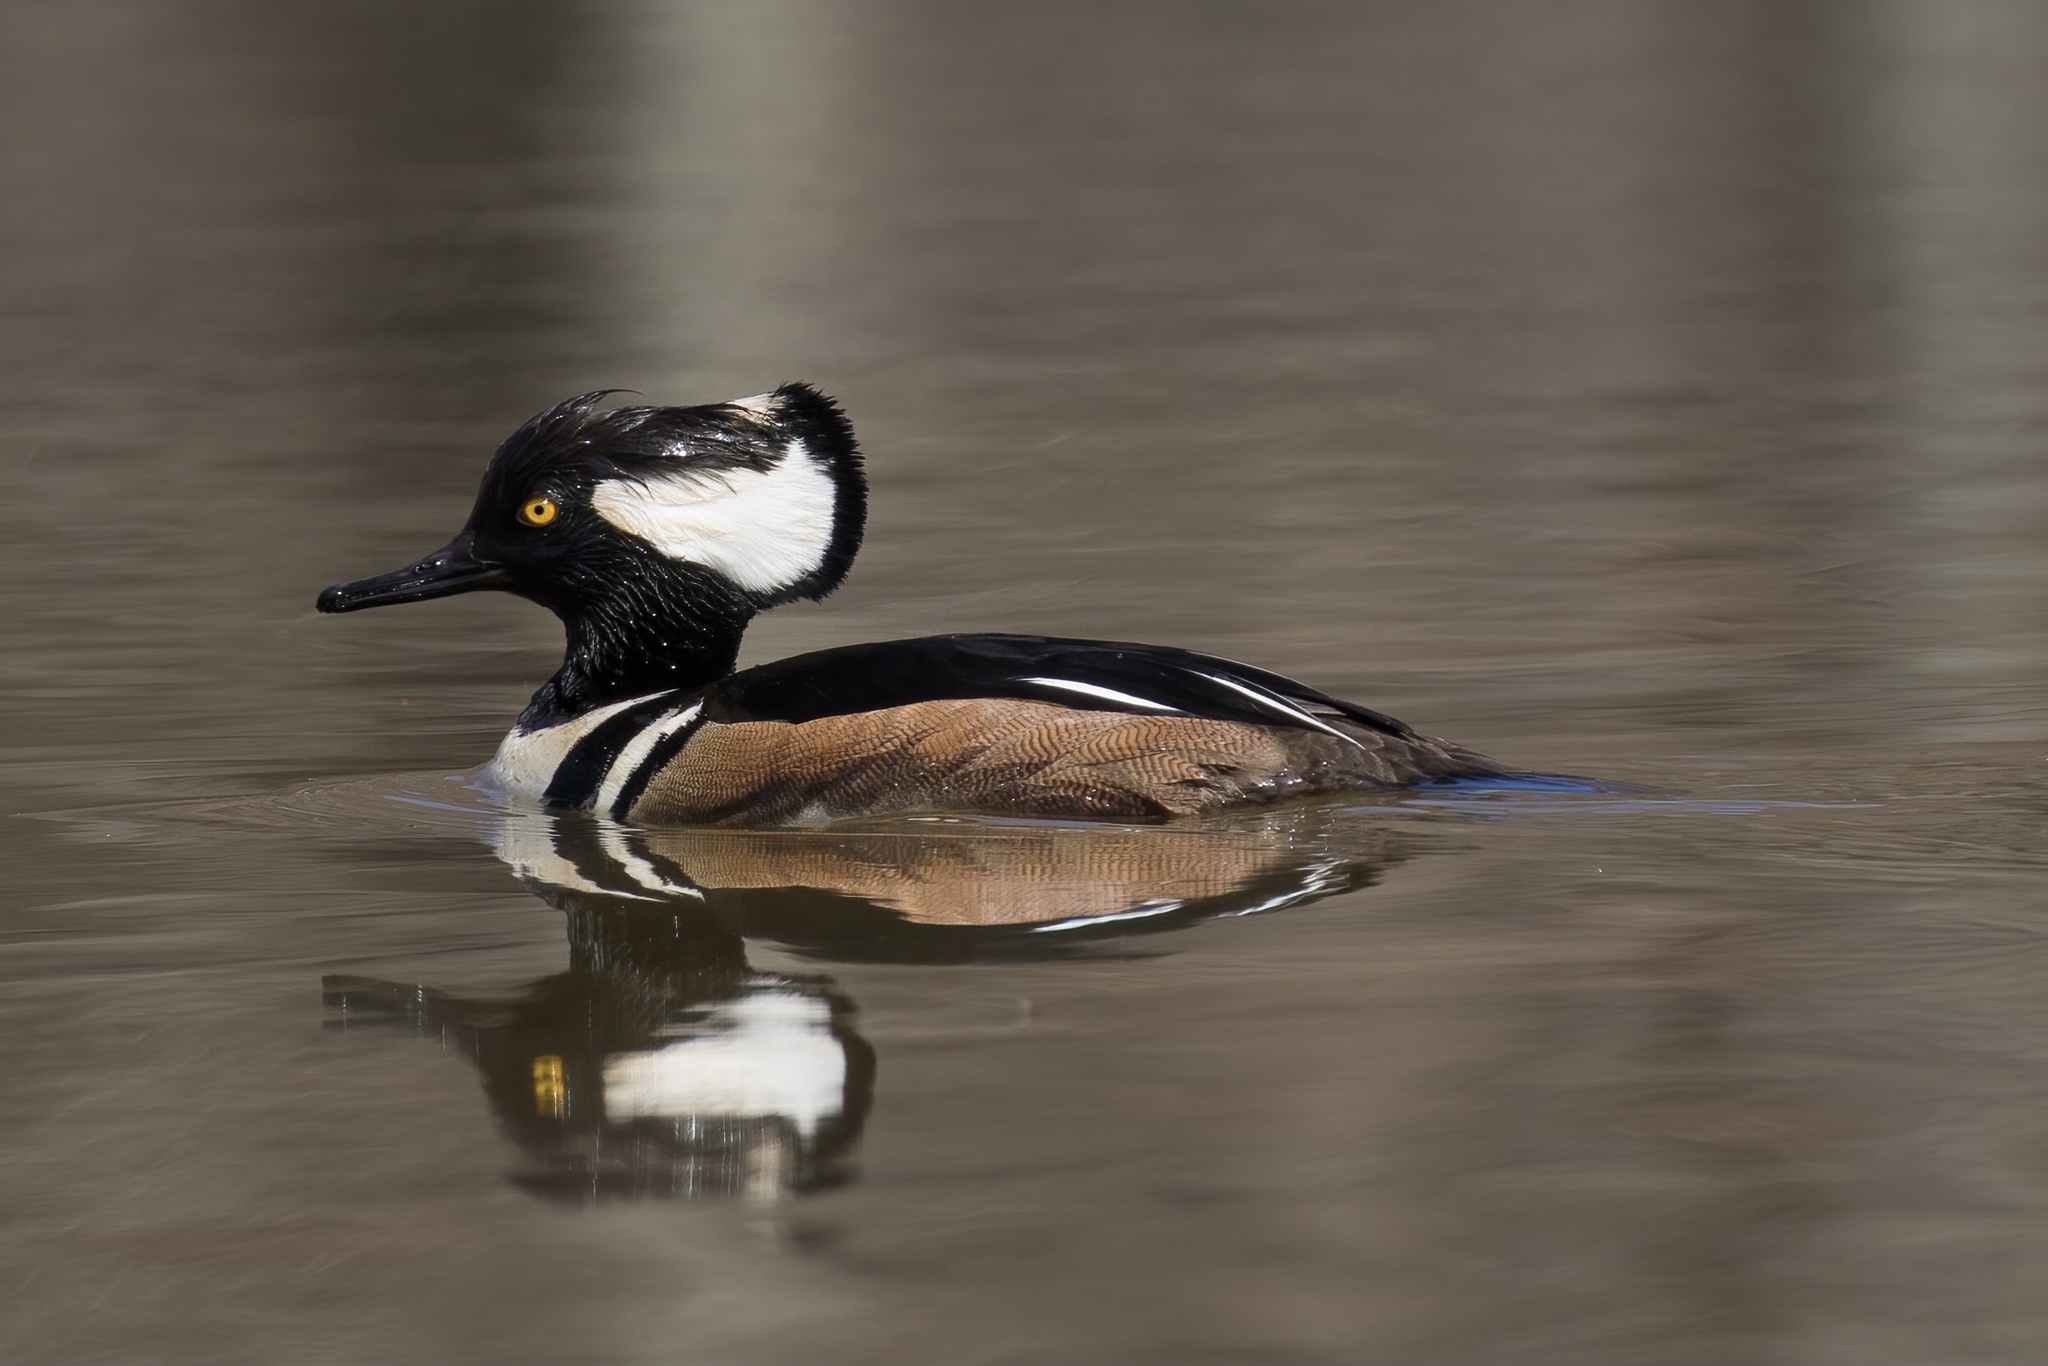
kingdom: Animalia
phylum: Chordata
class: Aves
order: Anseriformes
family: Anatidae
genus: Lophodytes
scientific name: Lophodytes cucullatus
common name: Hooded merganser
